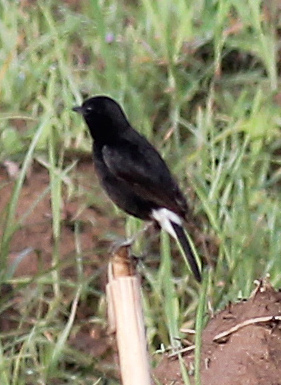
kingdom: Animalia
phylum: Chordata
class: Aves
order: Passeriformes
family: Muscicapidae
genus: Saxicola
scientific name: Saxicola caprata
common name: Pied bush chat
